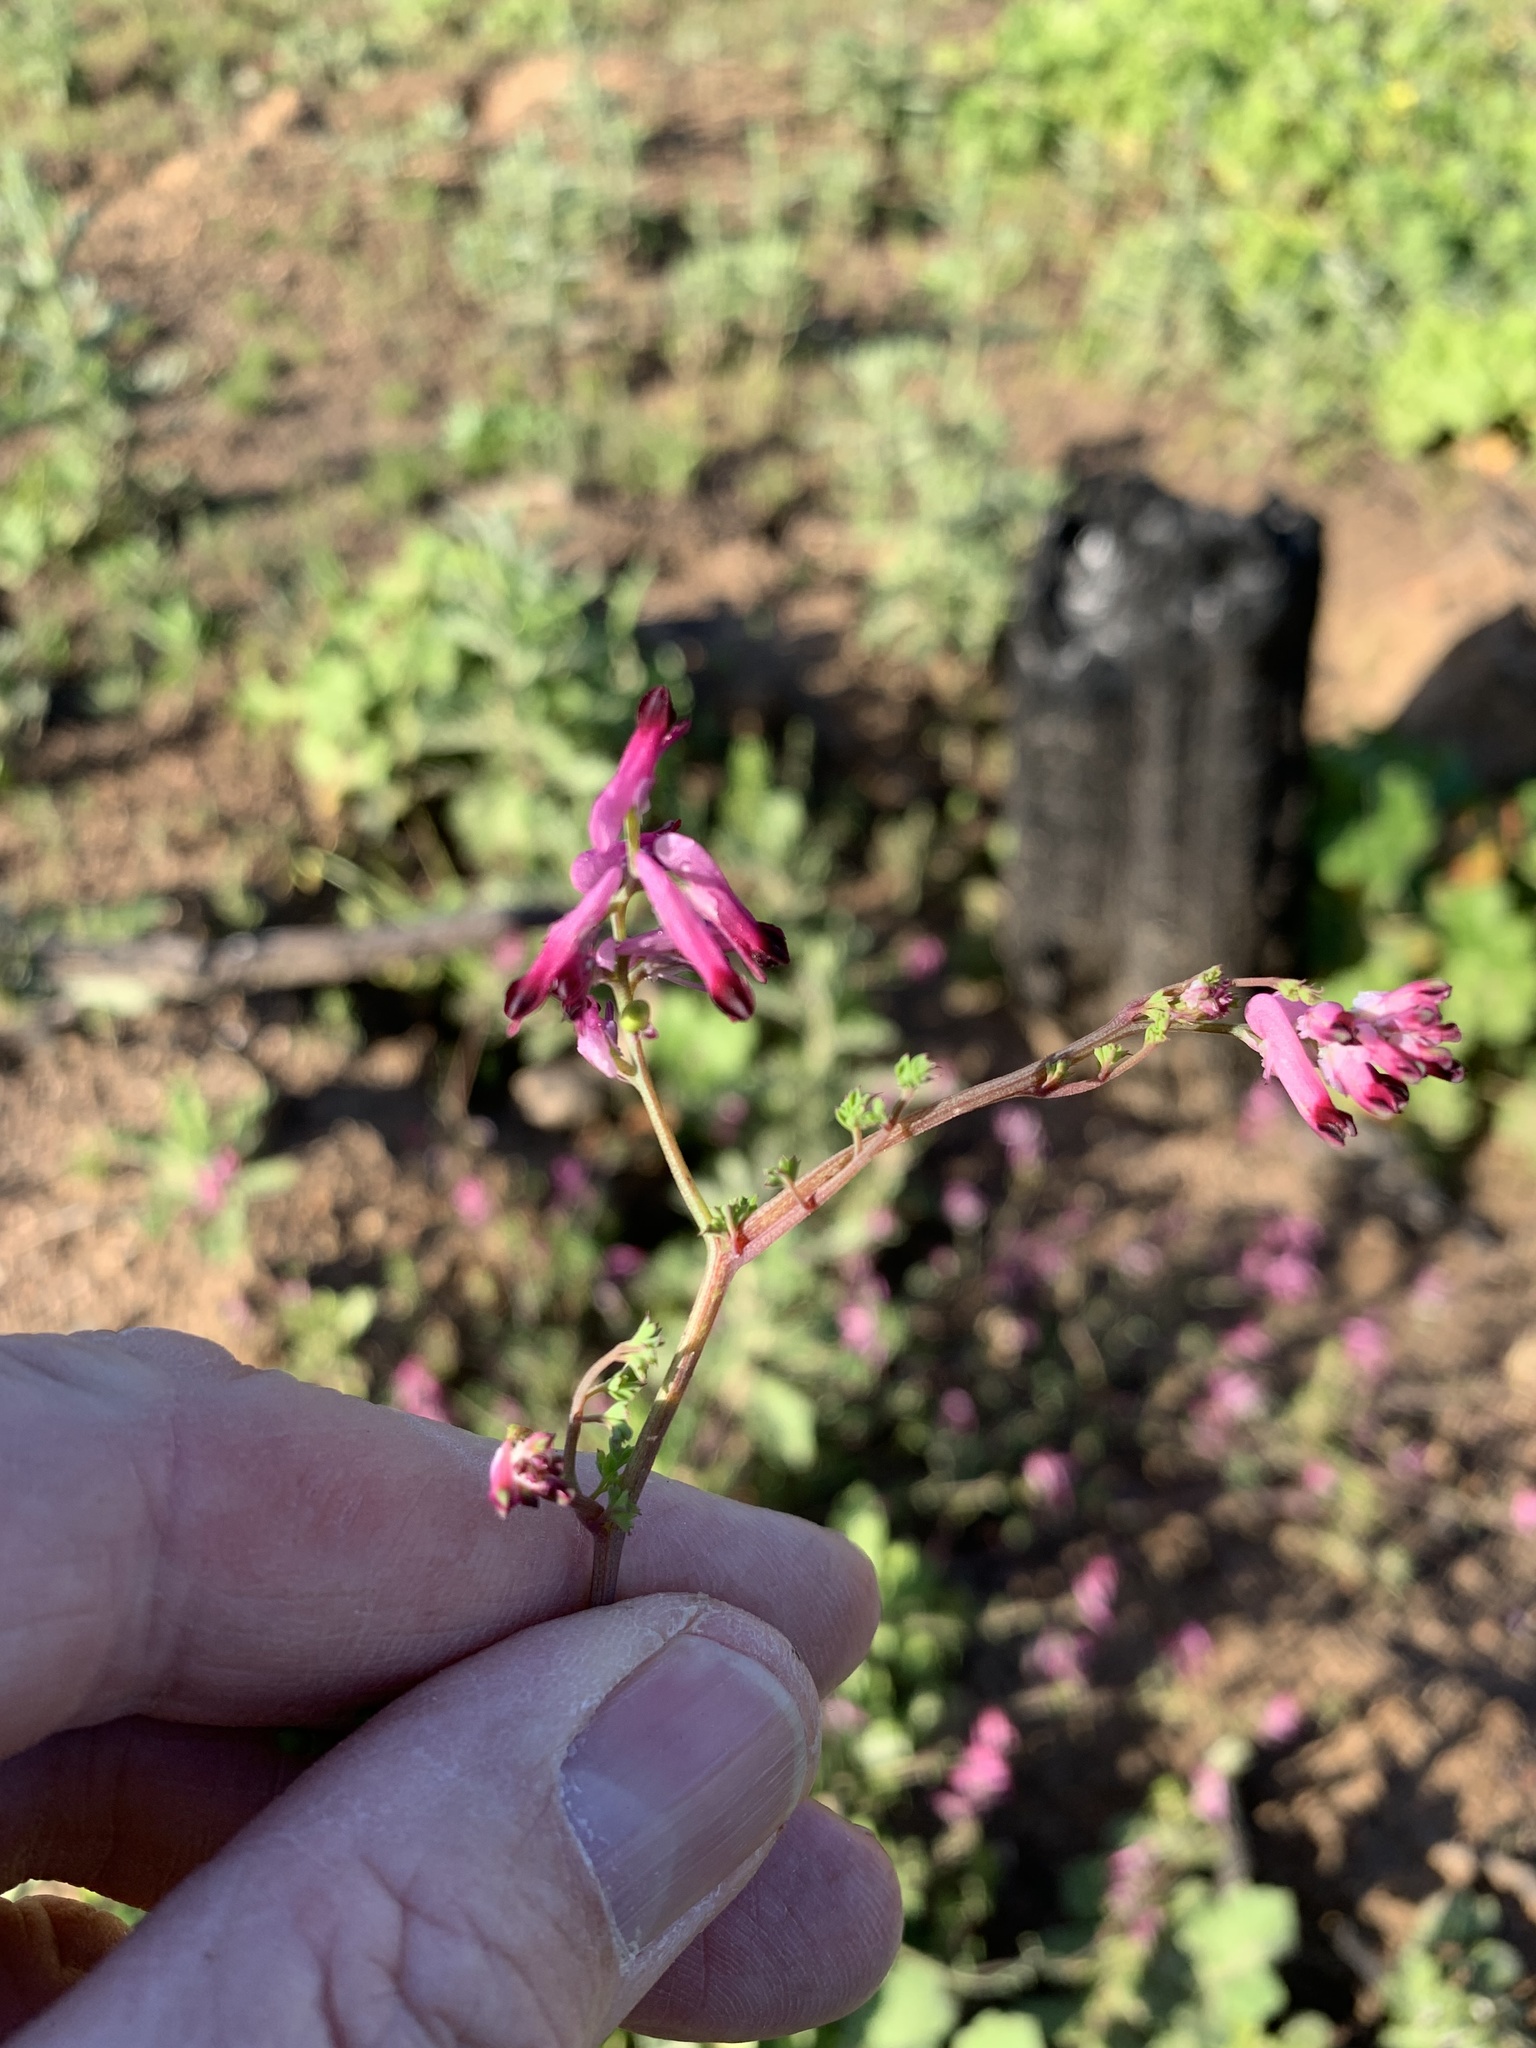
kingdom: Plantae
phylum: Tracheophyta
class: Magnoliopsida
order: Ranunculales
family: Papaveraceae
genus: Fumaria
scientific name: Fumaria muralis
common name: Common ramping-fumitory
